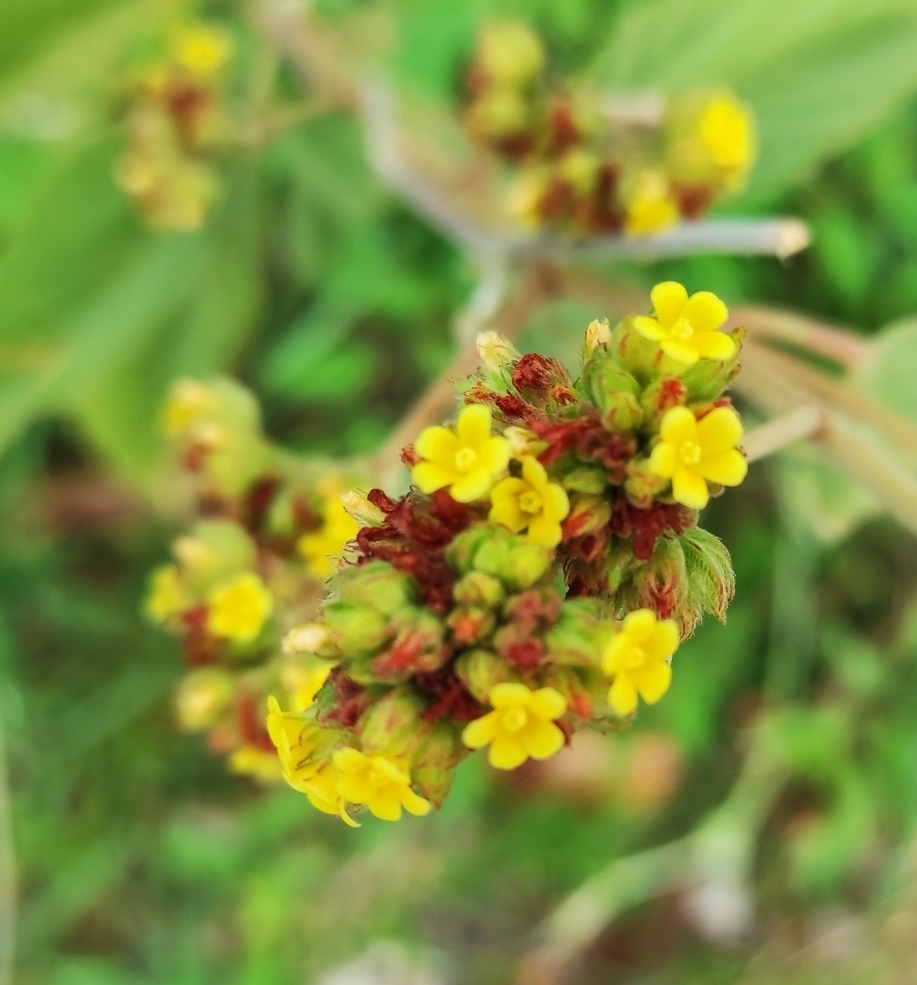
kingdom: Plantae
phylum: Tracheophyta
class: Magnoliopsida
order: Malvales
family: Malvaceae
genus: Waltheria
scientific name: Waltheria indica
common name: Leather-coat
